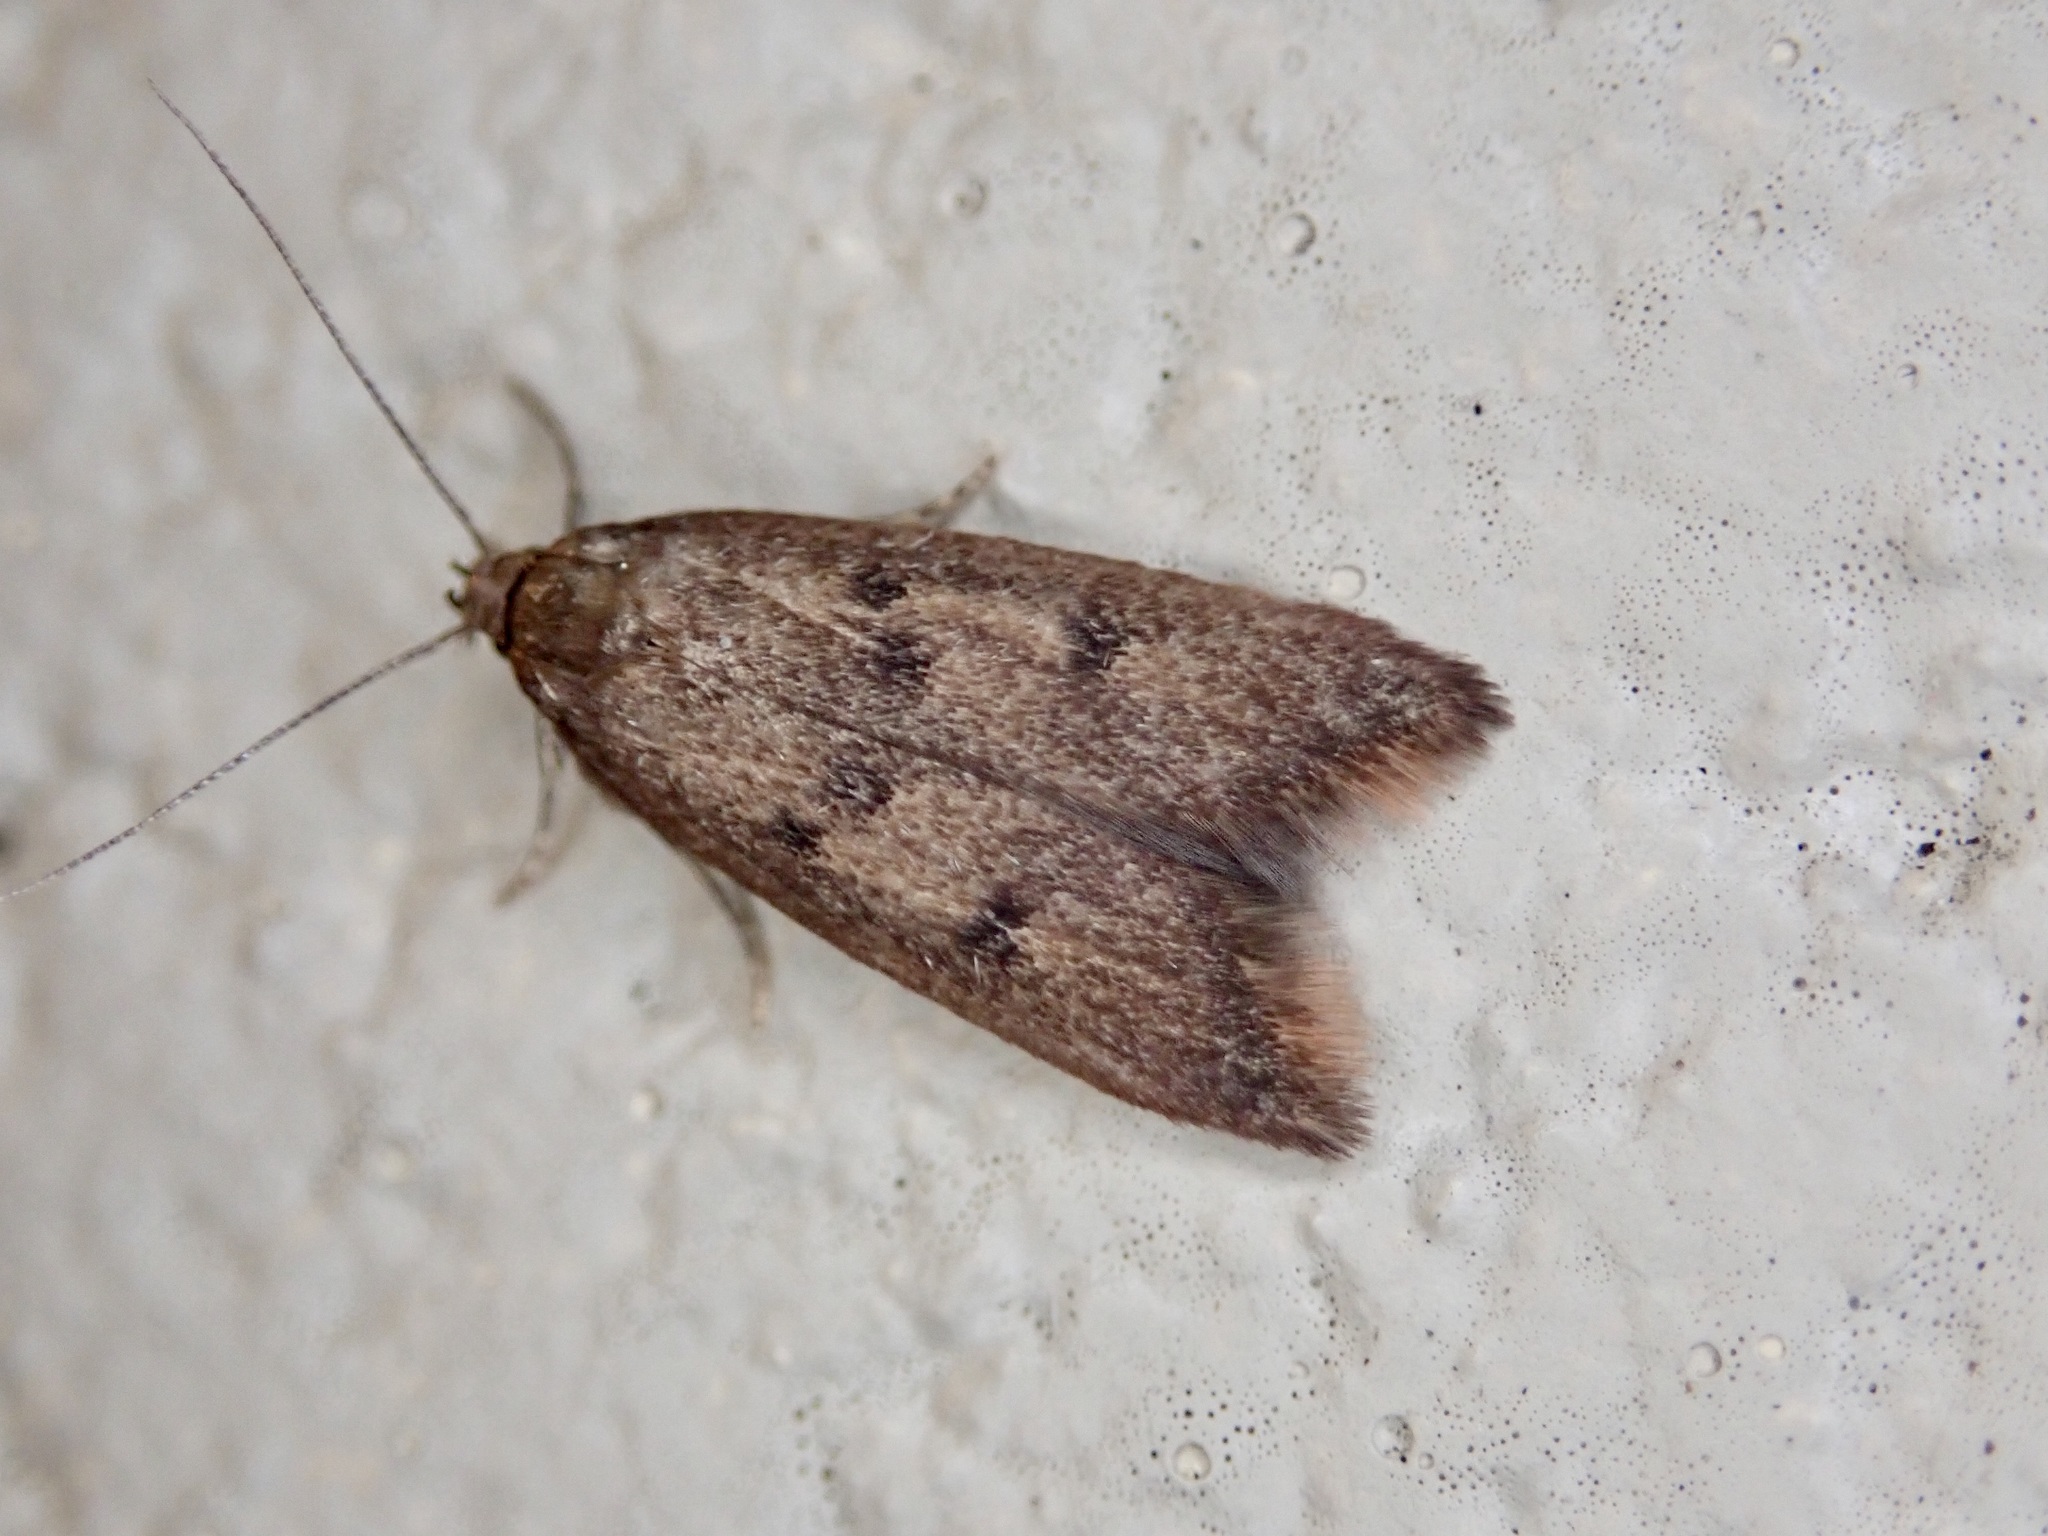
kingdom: Animalia
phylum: Arthropoda
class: Insecta
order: Lepidoptera
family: Oecophoridae
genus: Tachystola
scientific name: Tachystola acroxantha
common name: Ruddy streak
